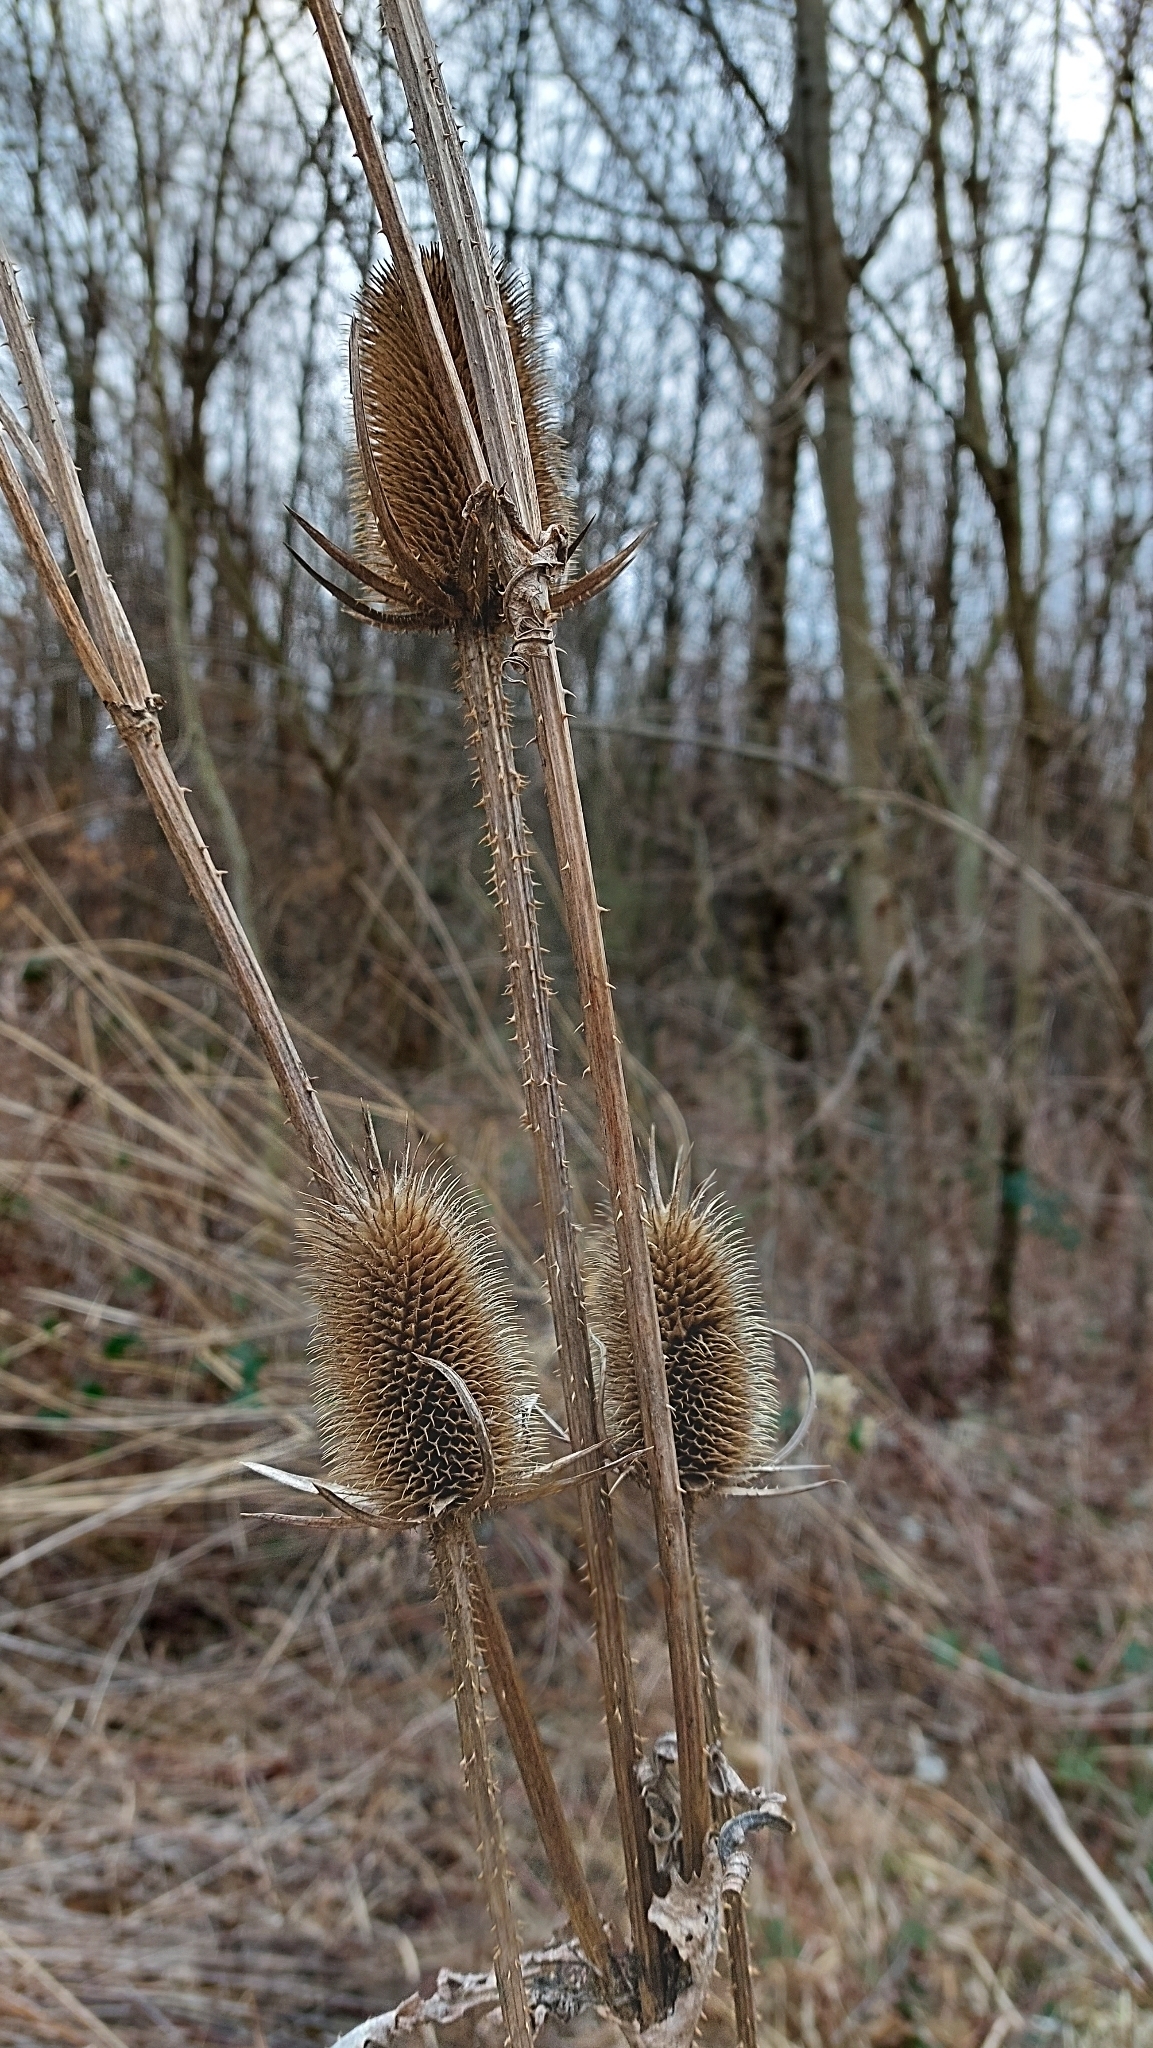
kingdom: Plantae
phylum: Tracheophyta
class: Magnoliopsida
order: Dipsacales
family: Caprifoliaceae
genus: Dipsacus
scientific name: Dipsacus laciniatus
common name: Cut-leaved teasel
